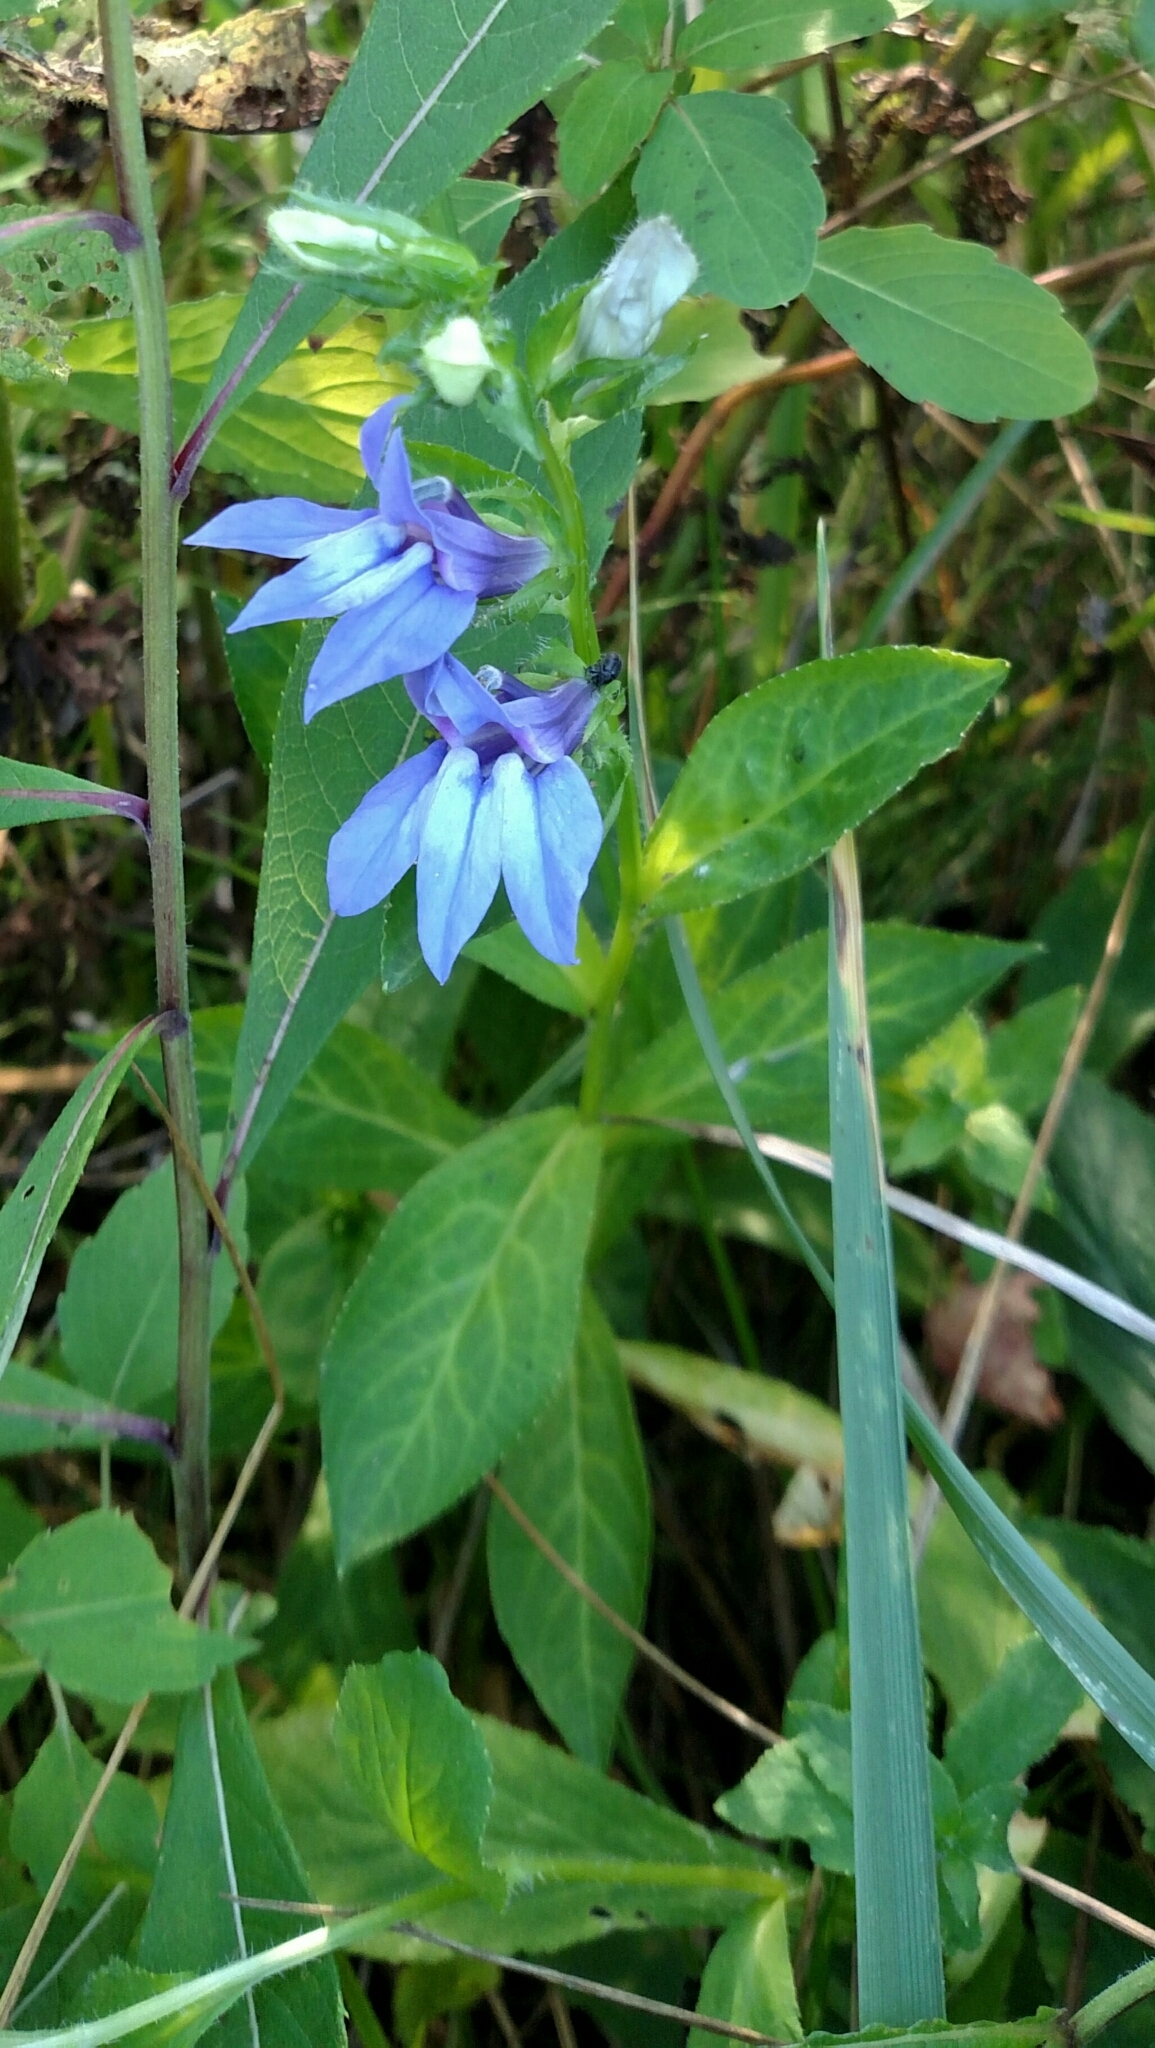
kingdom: Plantae
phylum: Tracheophyta
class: Magnoliopsida
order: Asterales
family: Campanulaceae
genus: Lobelia
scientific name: Lobelia siphilitica
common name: Great lobelia
